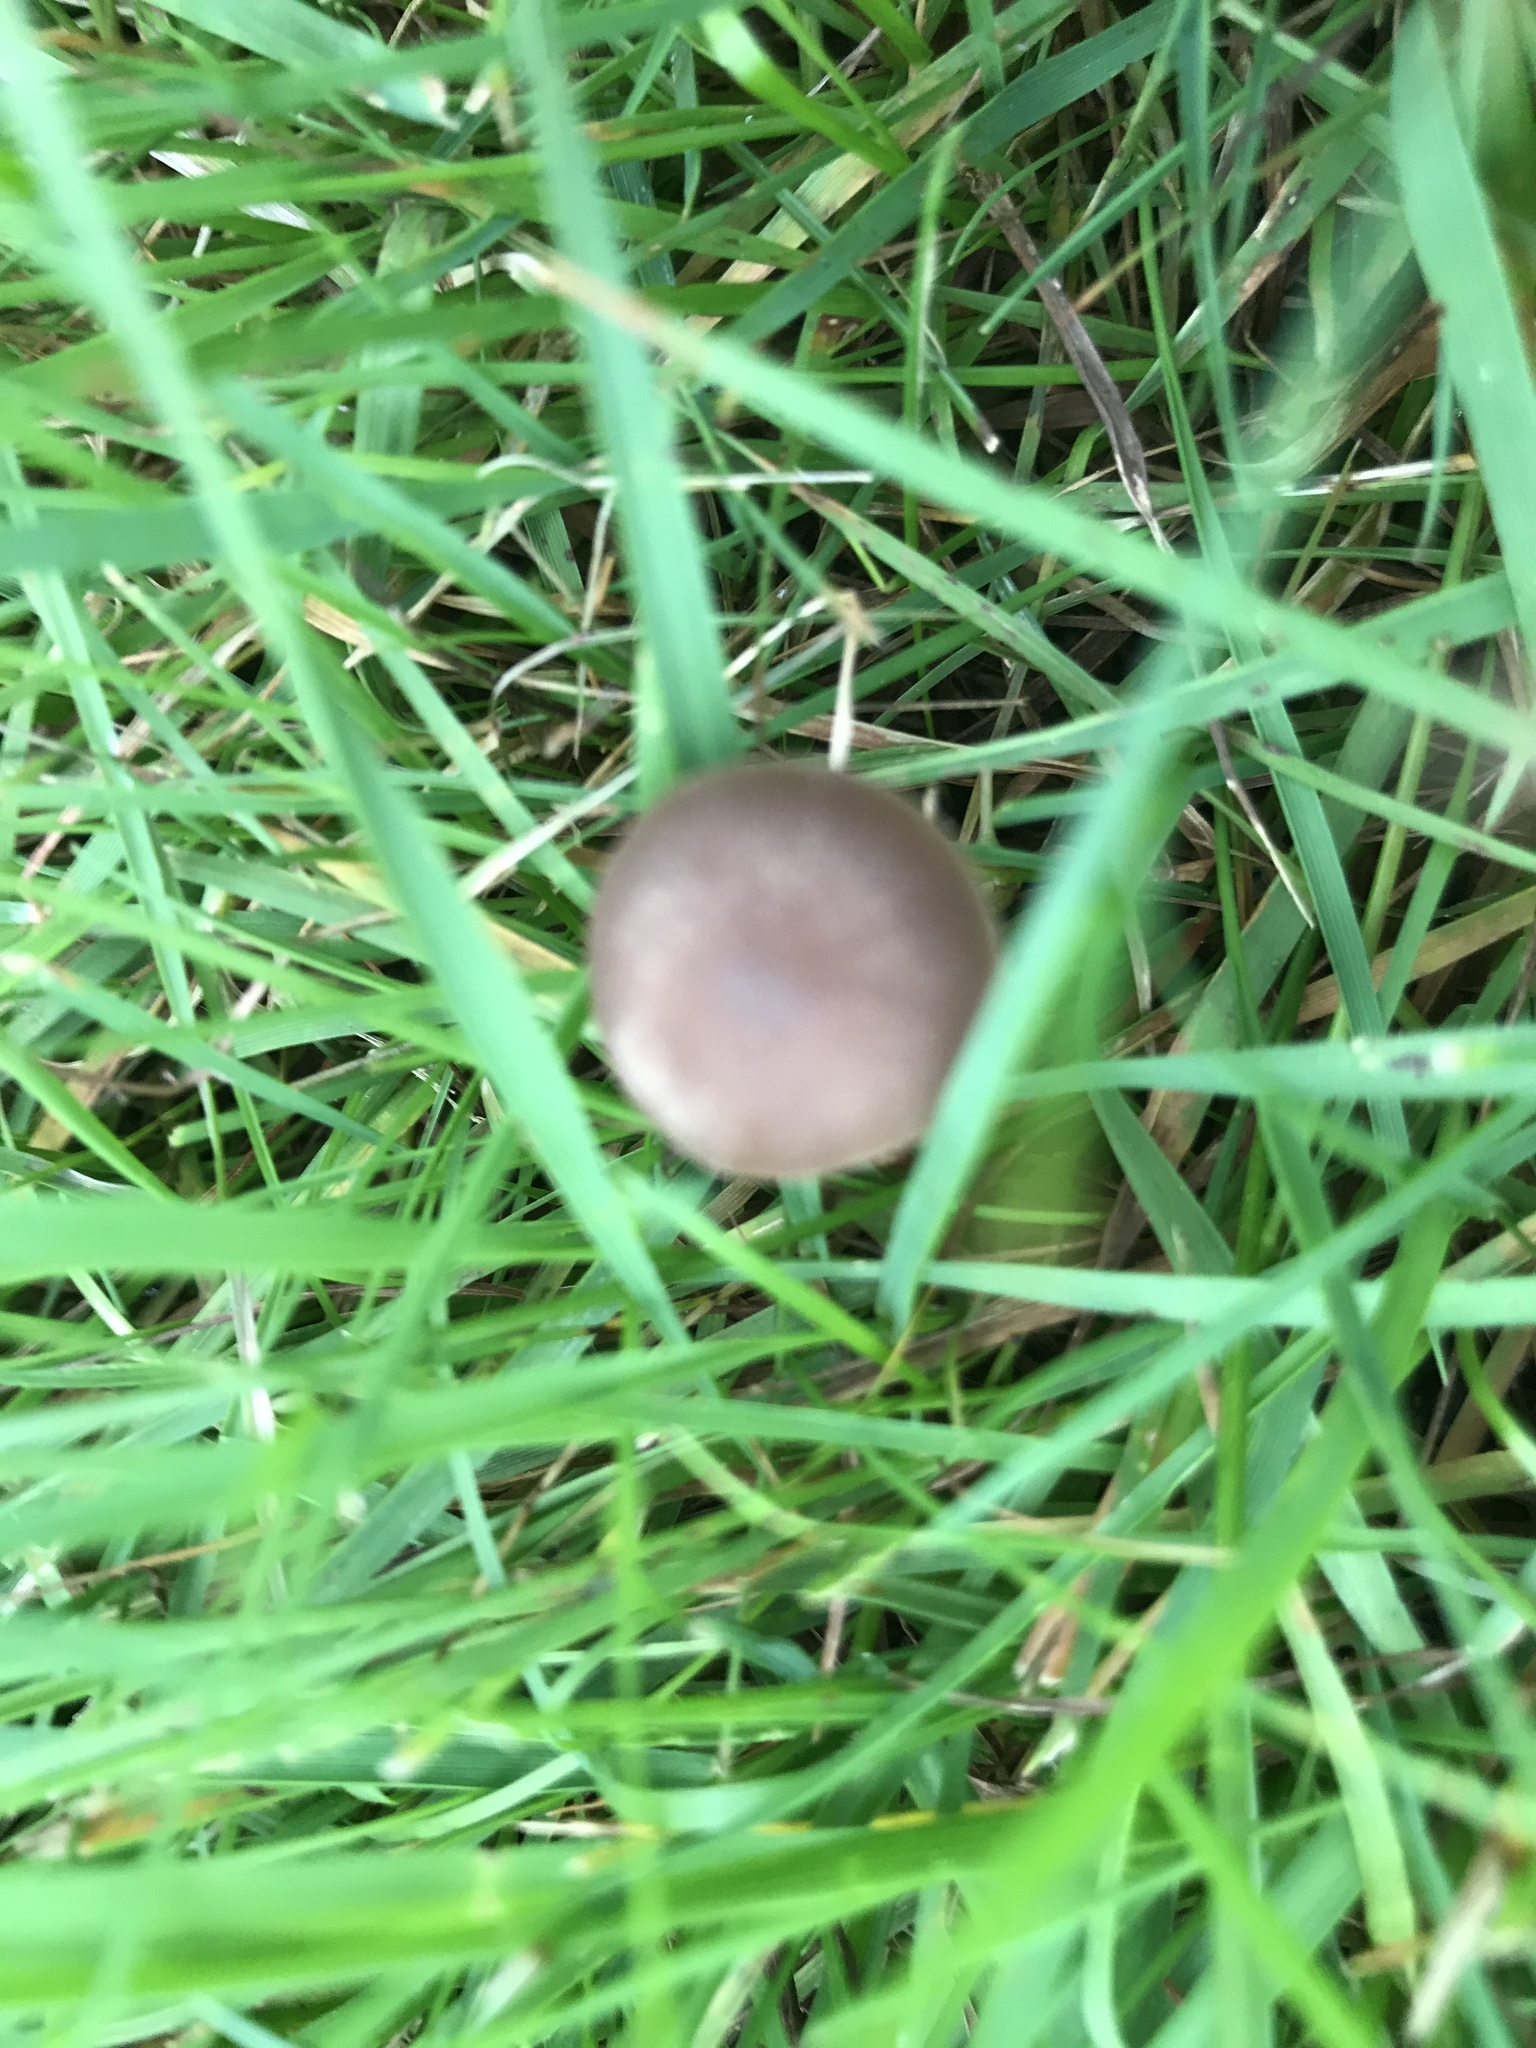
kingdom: Fungi
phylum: Basidiomycota
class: Agaricomycetes
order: Agaricales
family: Bolbitiaceae
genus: Panaeolina
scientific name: Panaeolina foenisecii
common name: Brown hay cap
